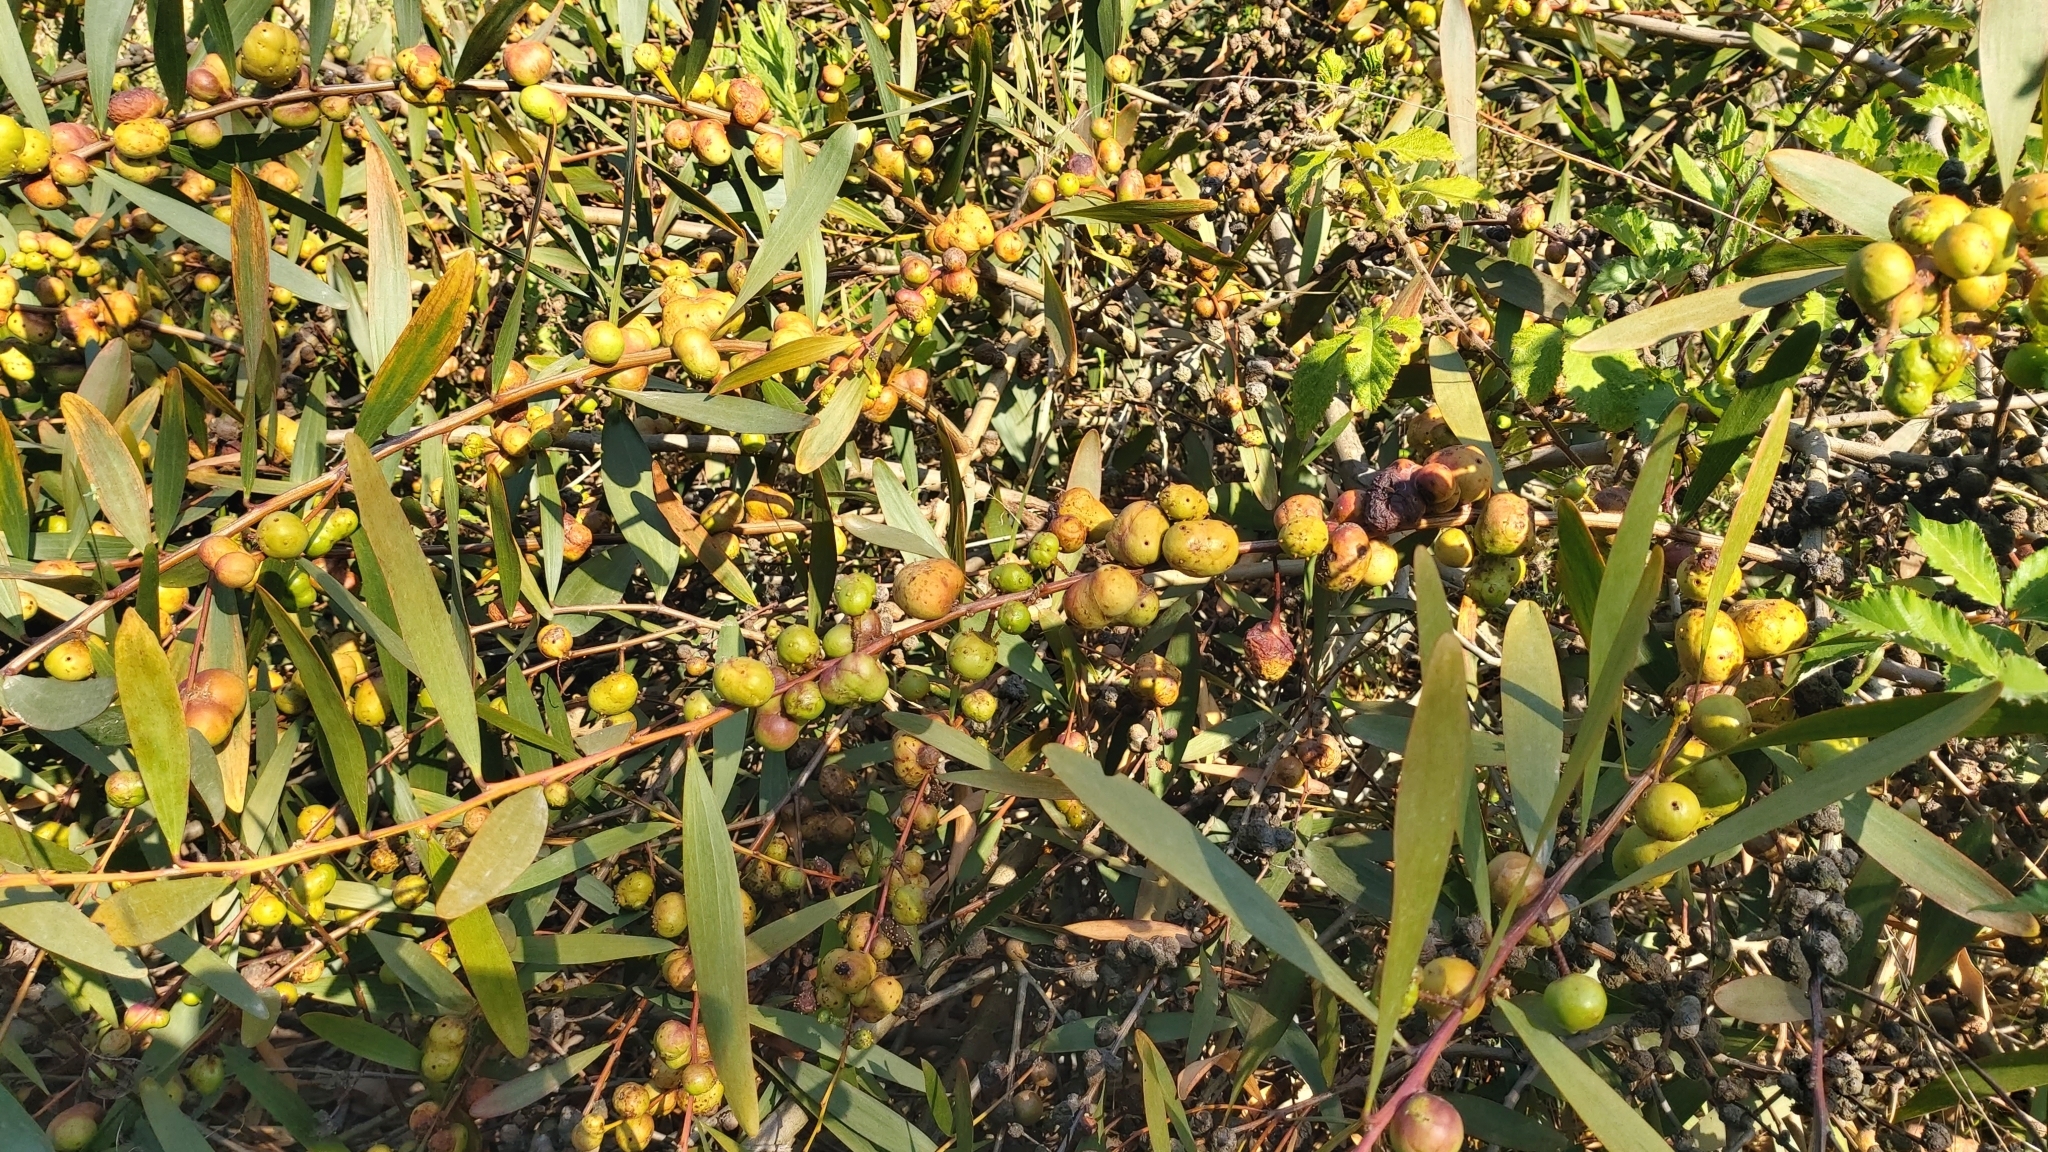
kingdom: Animalia
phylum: Arthropoda
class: Insecta
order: Hymenoptera
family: Pteromalidae
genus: Trichilogaster
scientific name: Trichilogaster acaciaelongifoliae
